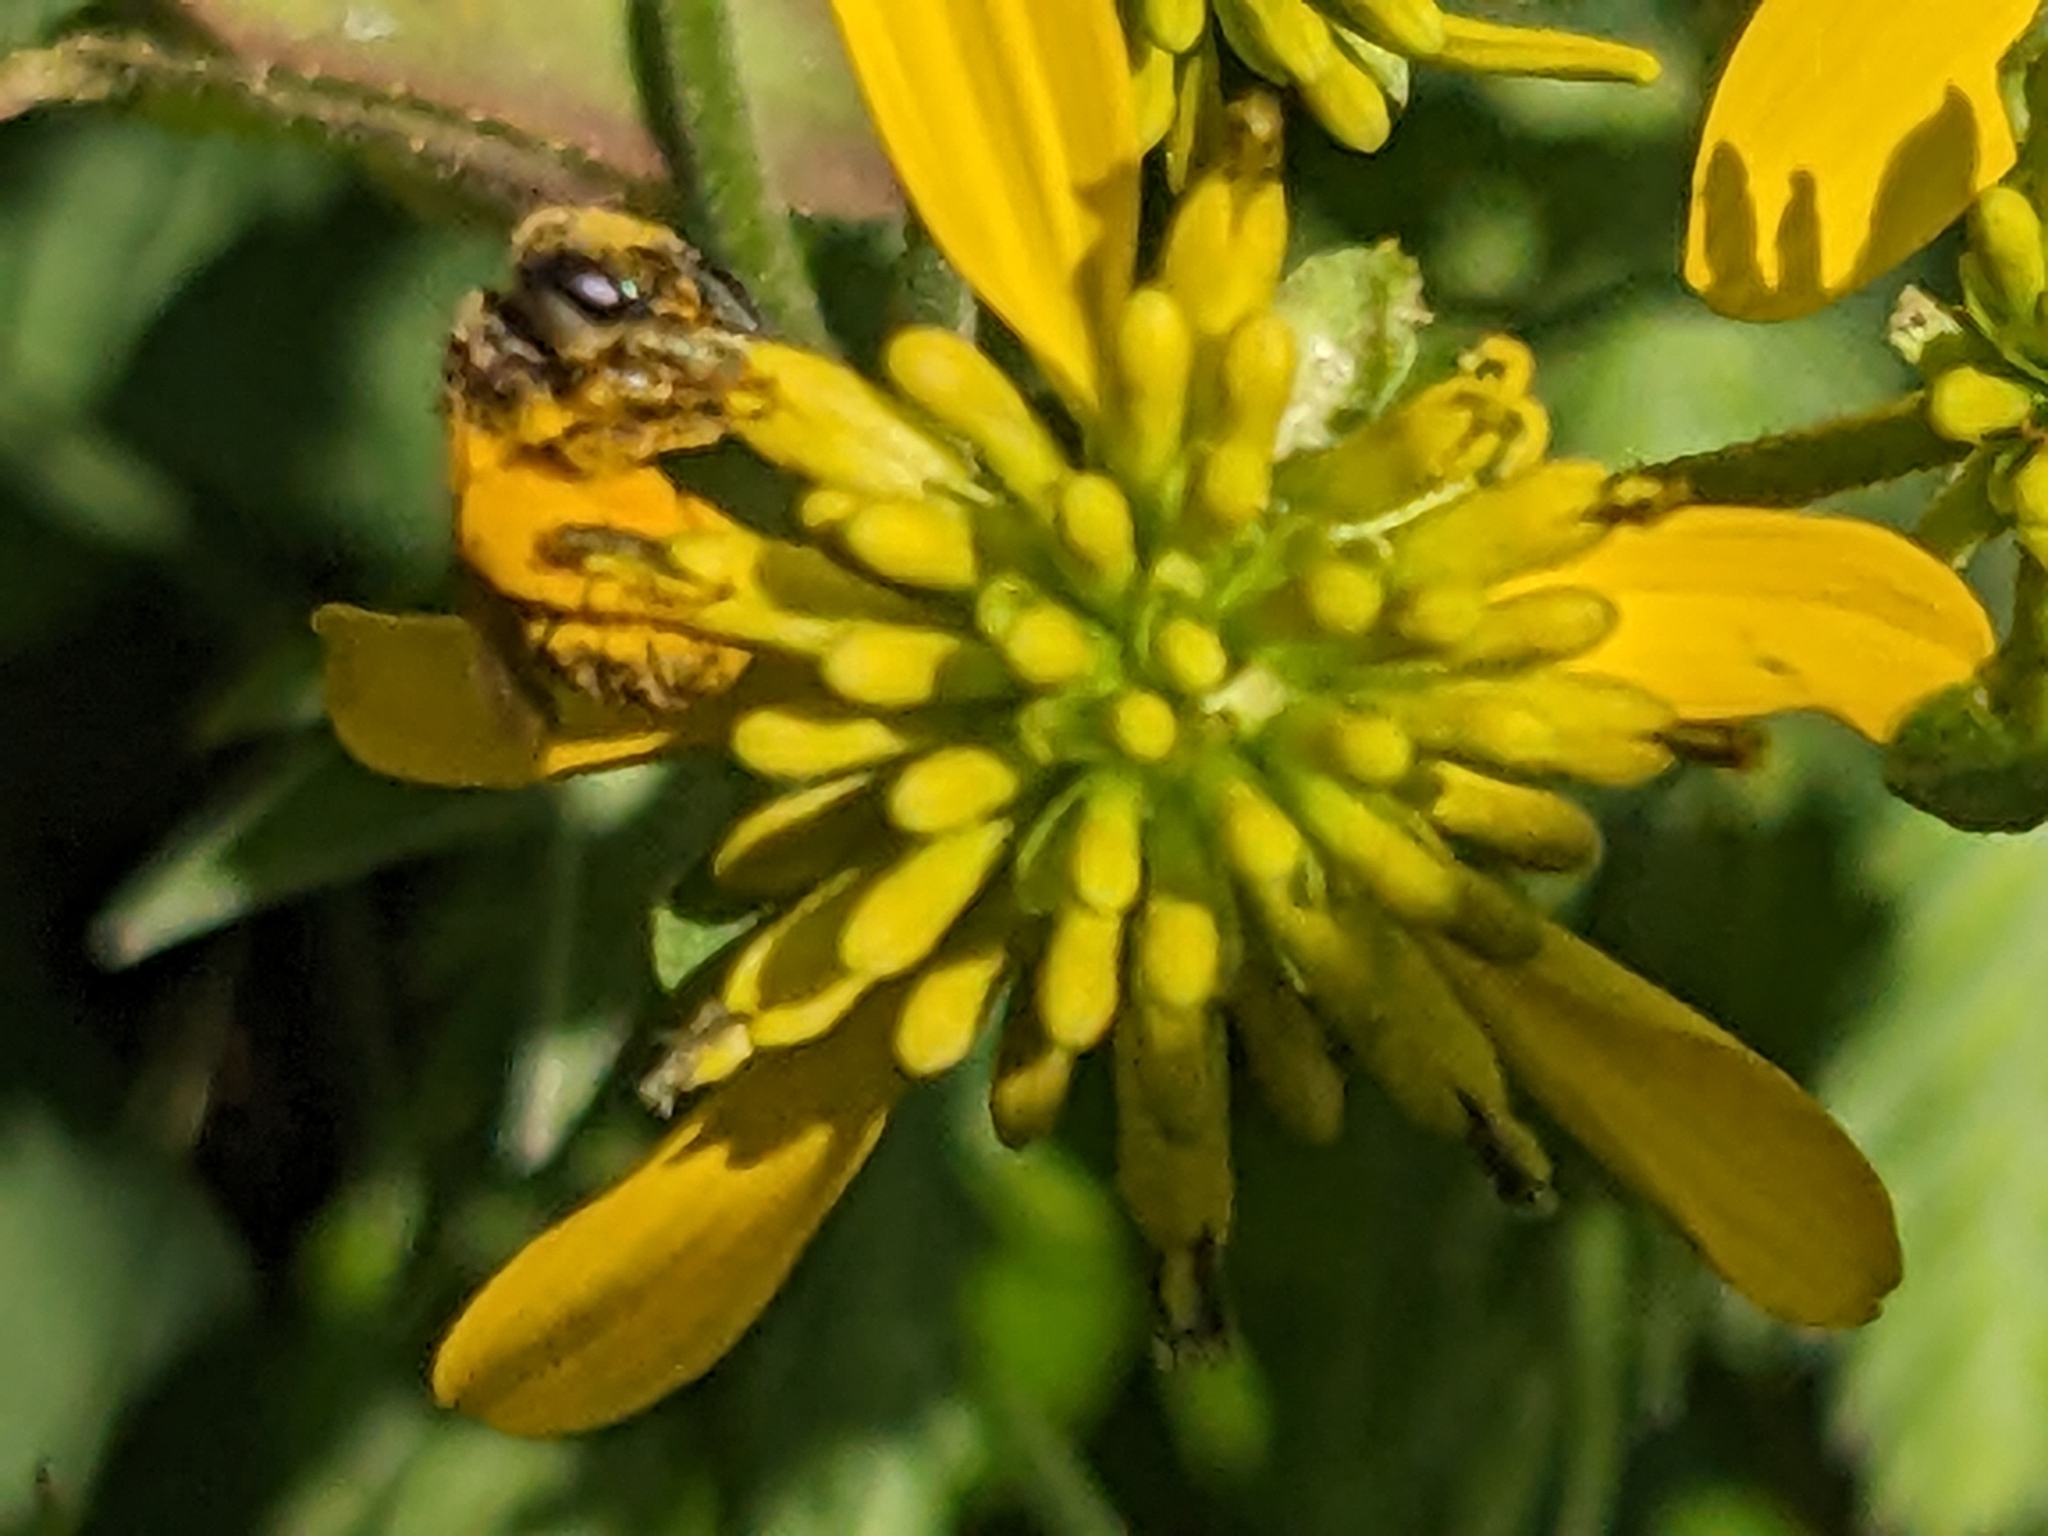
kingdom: Animalia
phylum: Arthropoda
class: Insecta
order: Hymenoptera
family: Halictidae
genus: Halictus
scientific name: Halictus ligatus
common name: Ligated furrow bee
